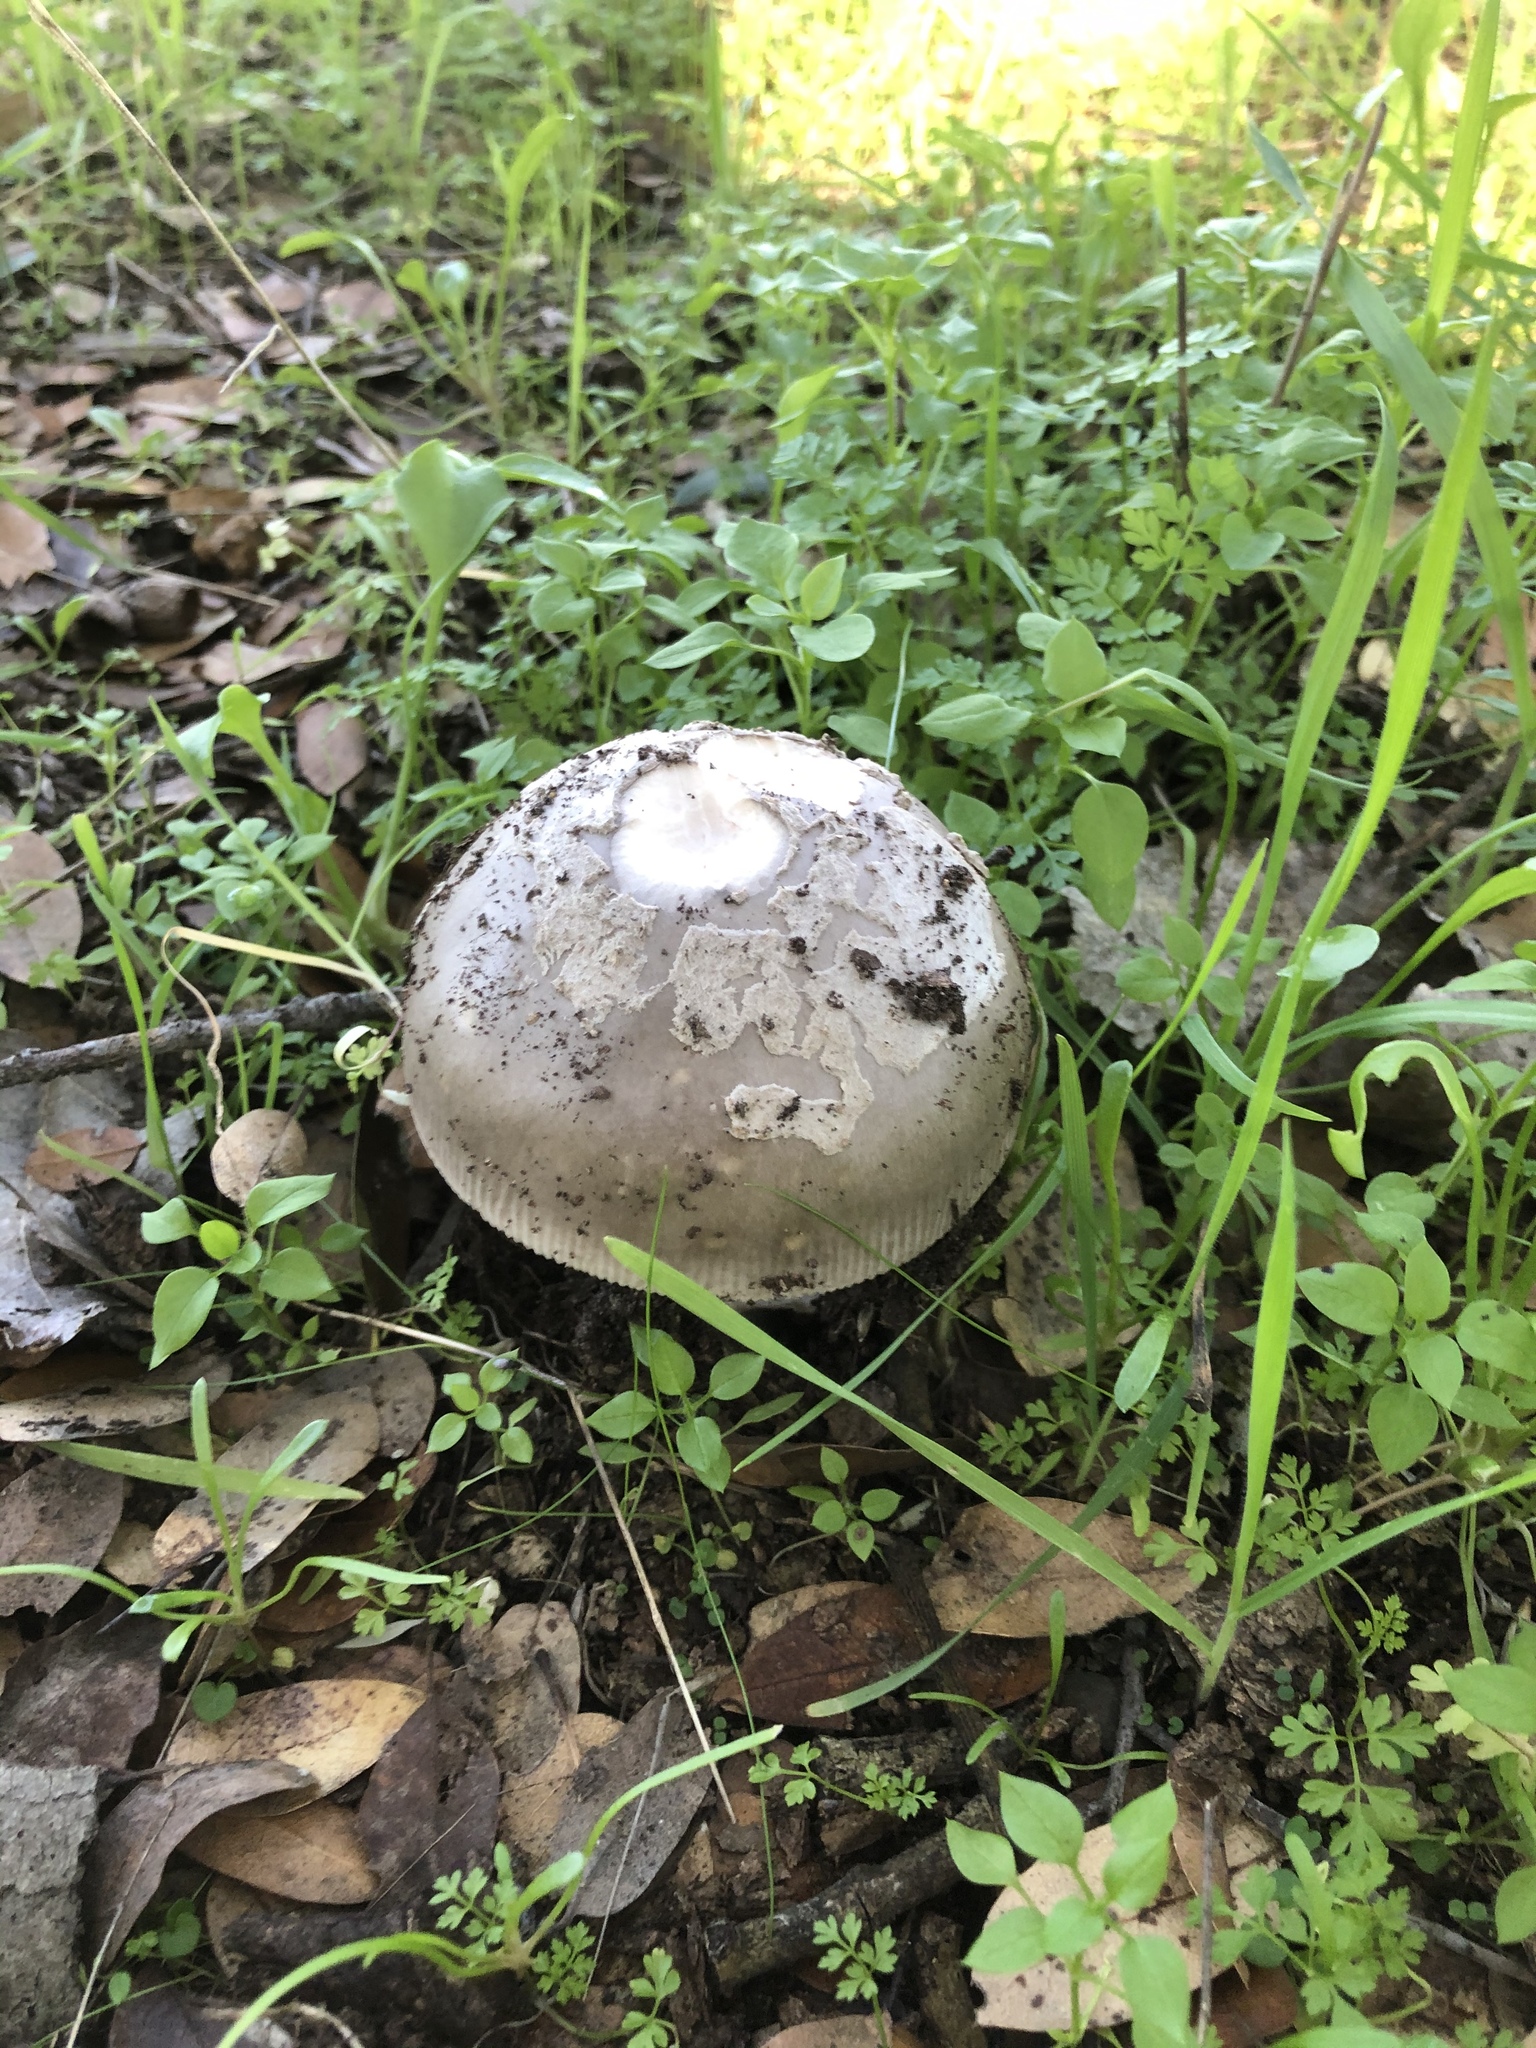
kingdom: Fungi
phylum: Basidiomycota
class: Agaricomycetes
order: Agaricales
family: Amanitaceae
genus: Amanita
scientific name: Amanita constricta
